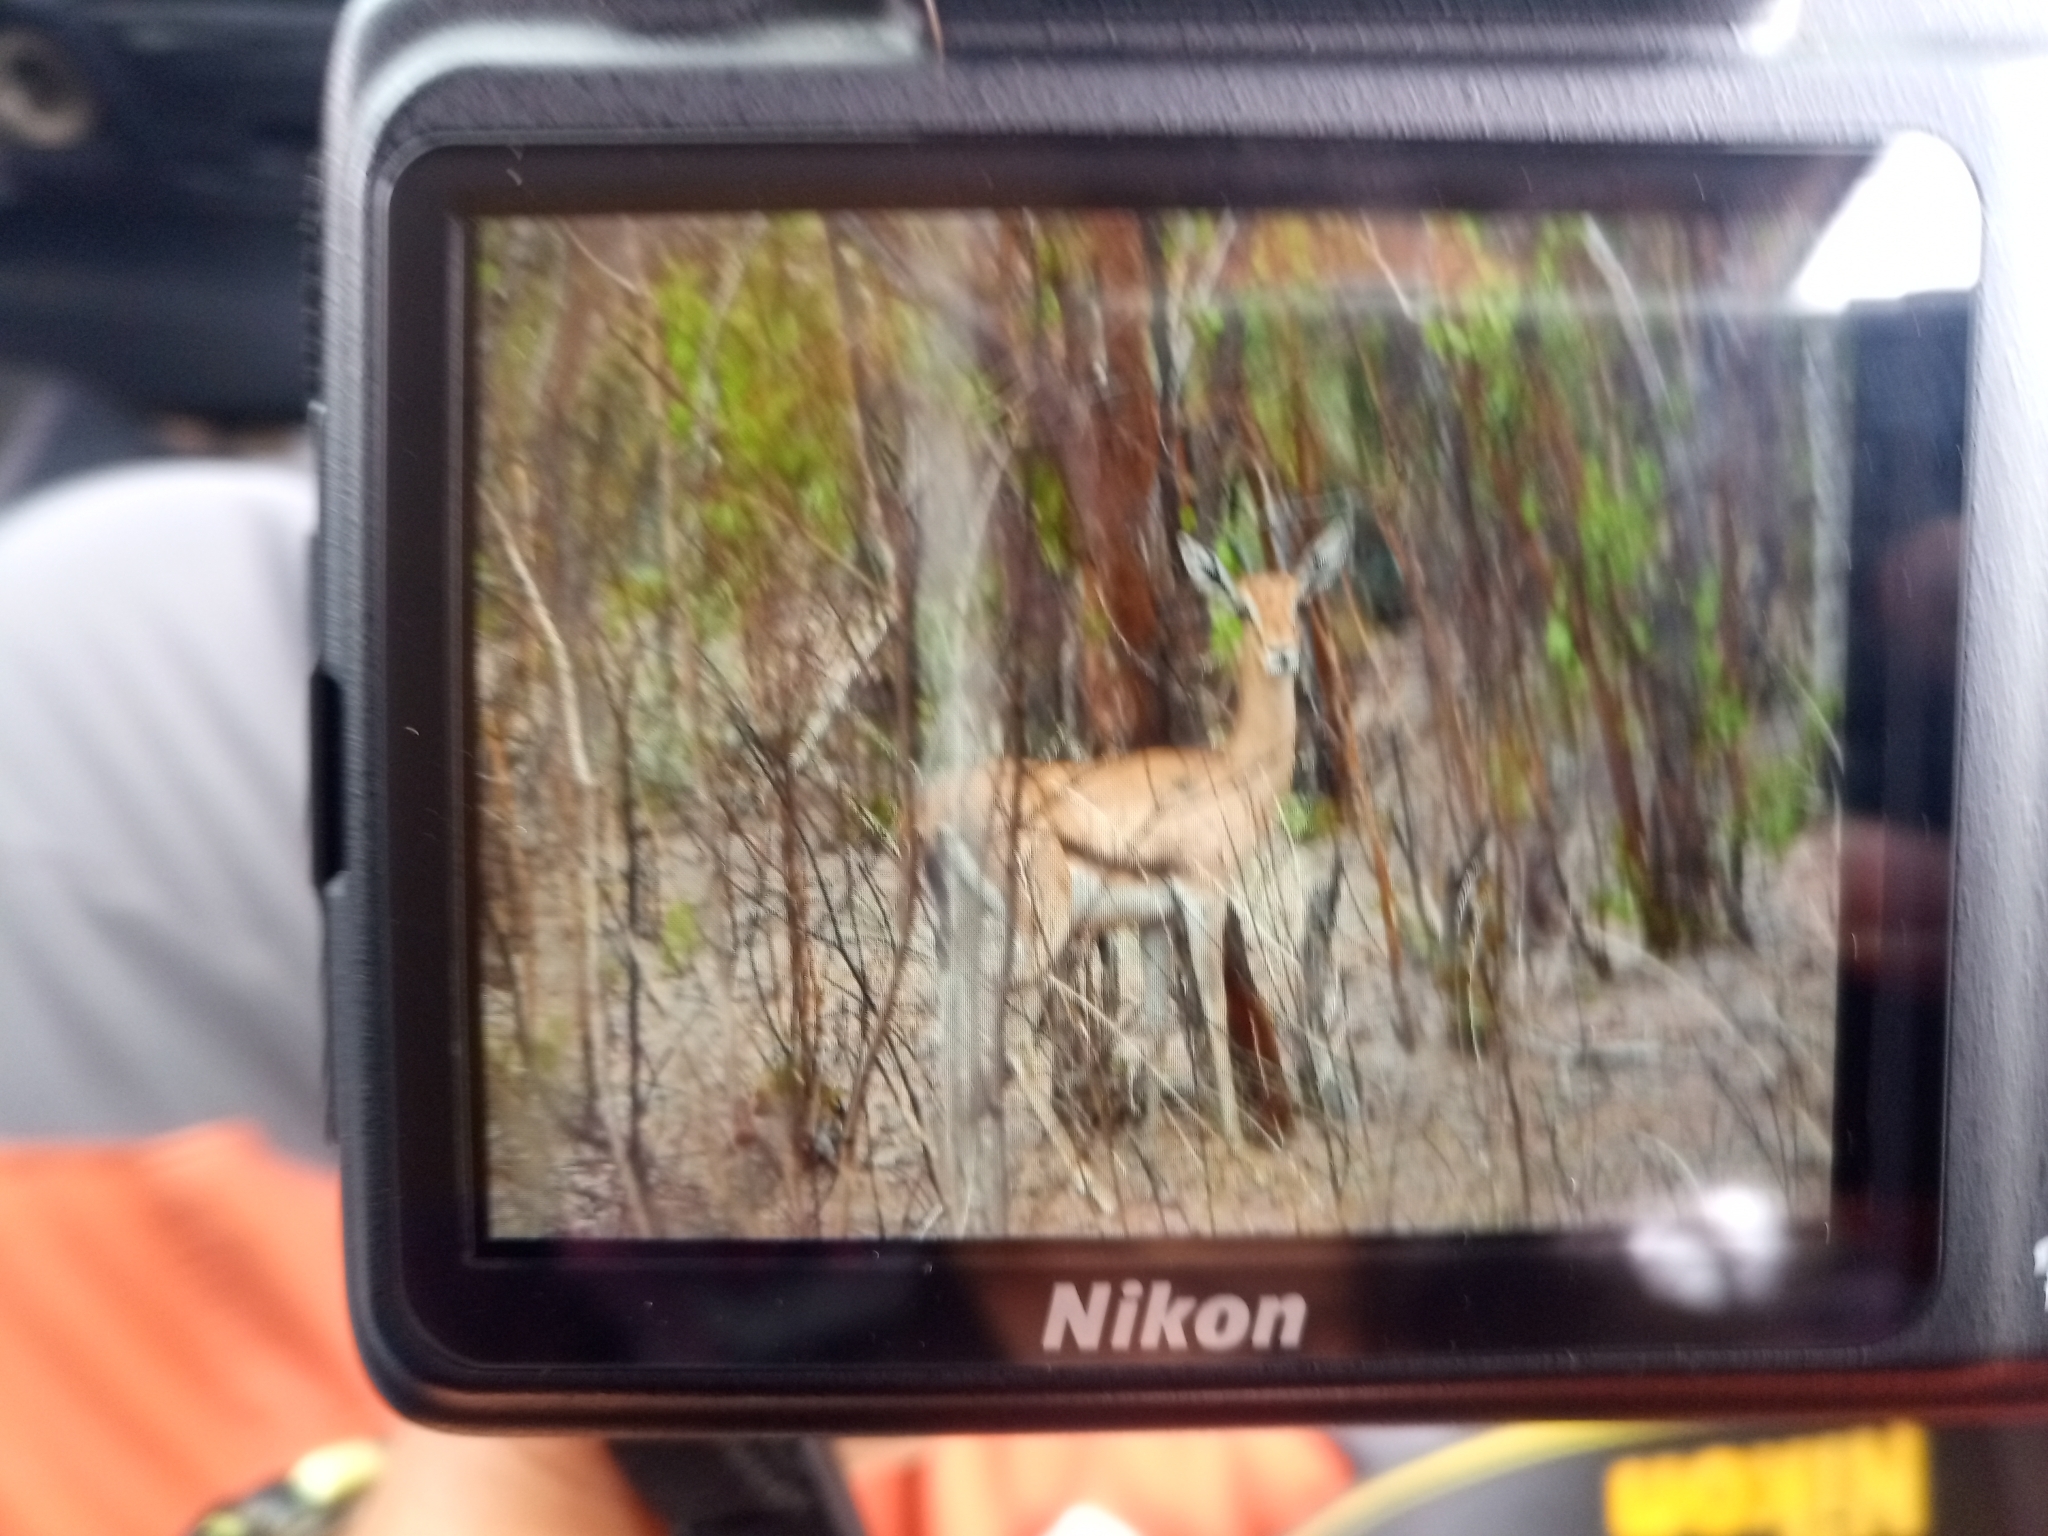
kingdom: Animalia
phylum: Chordata
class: Mammalia
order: Artiodactyla
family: Bovidae
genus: Eudorcas
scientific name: Eudorcas rufifrons
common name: Red-fronted gazelle
